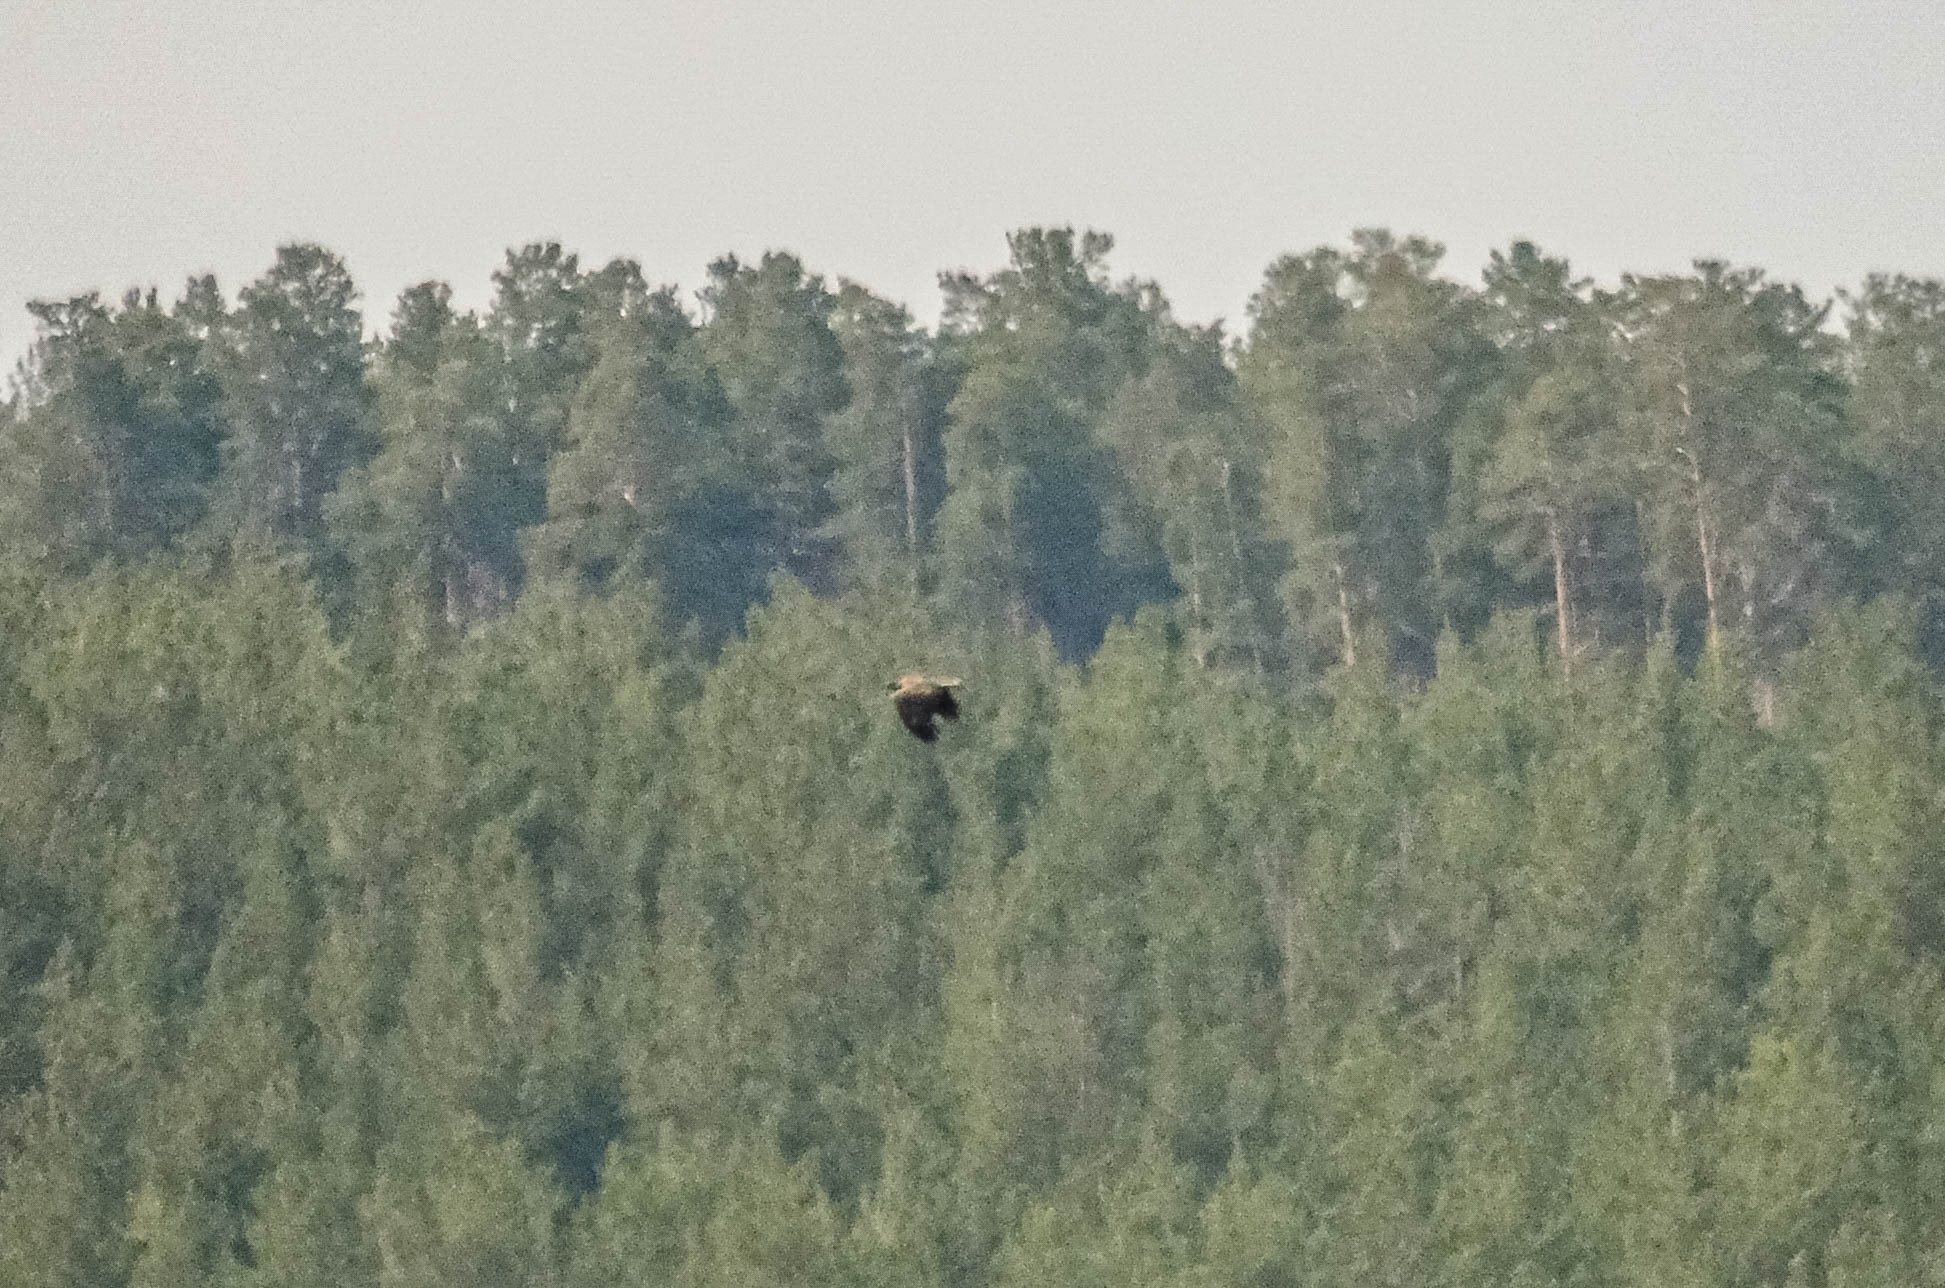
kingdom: Animalia
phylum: Chordata
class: Aves
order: Accipitriformes
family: Accipitridae
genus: Haliaeetus
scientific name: Haliaeetus albicilla
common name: White-tailed eagle
